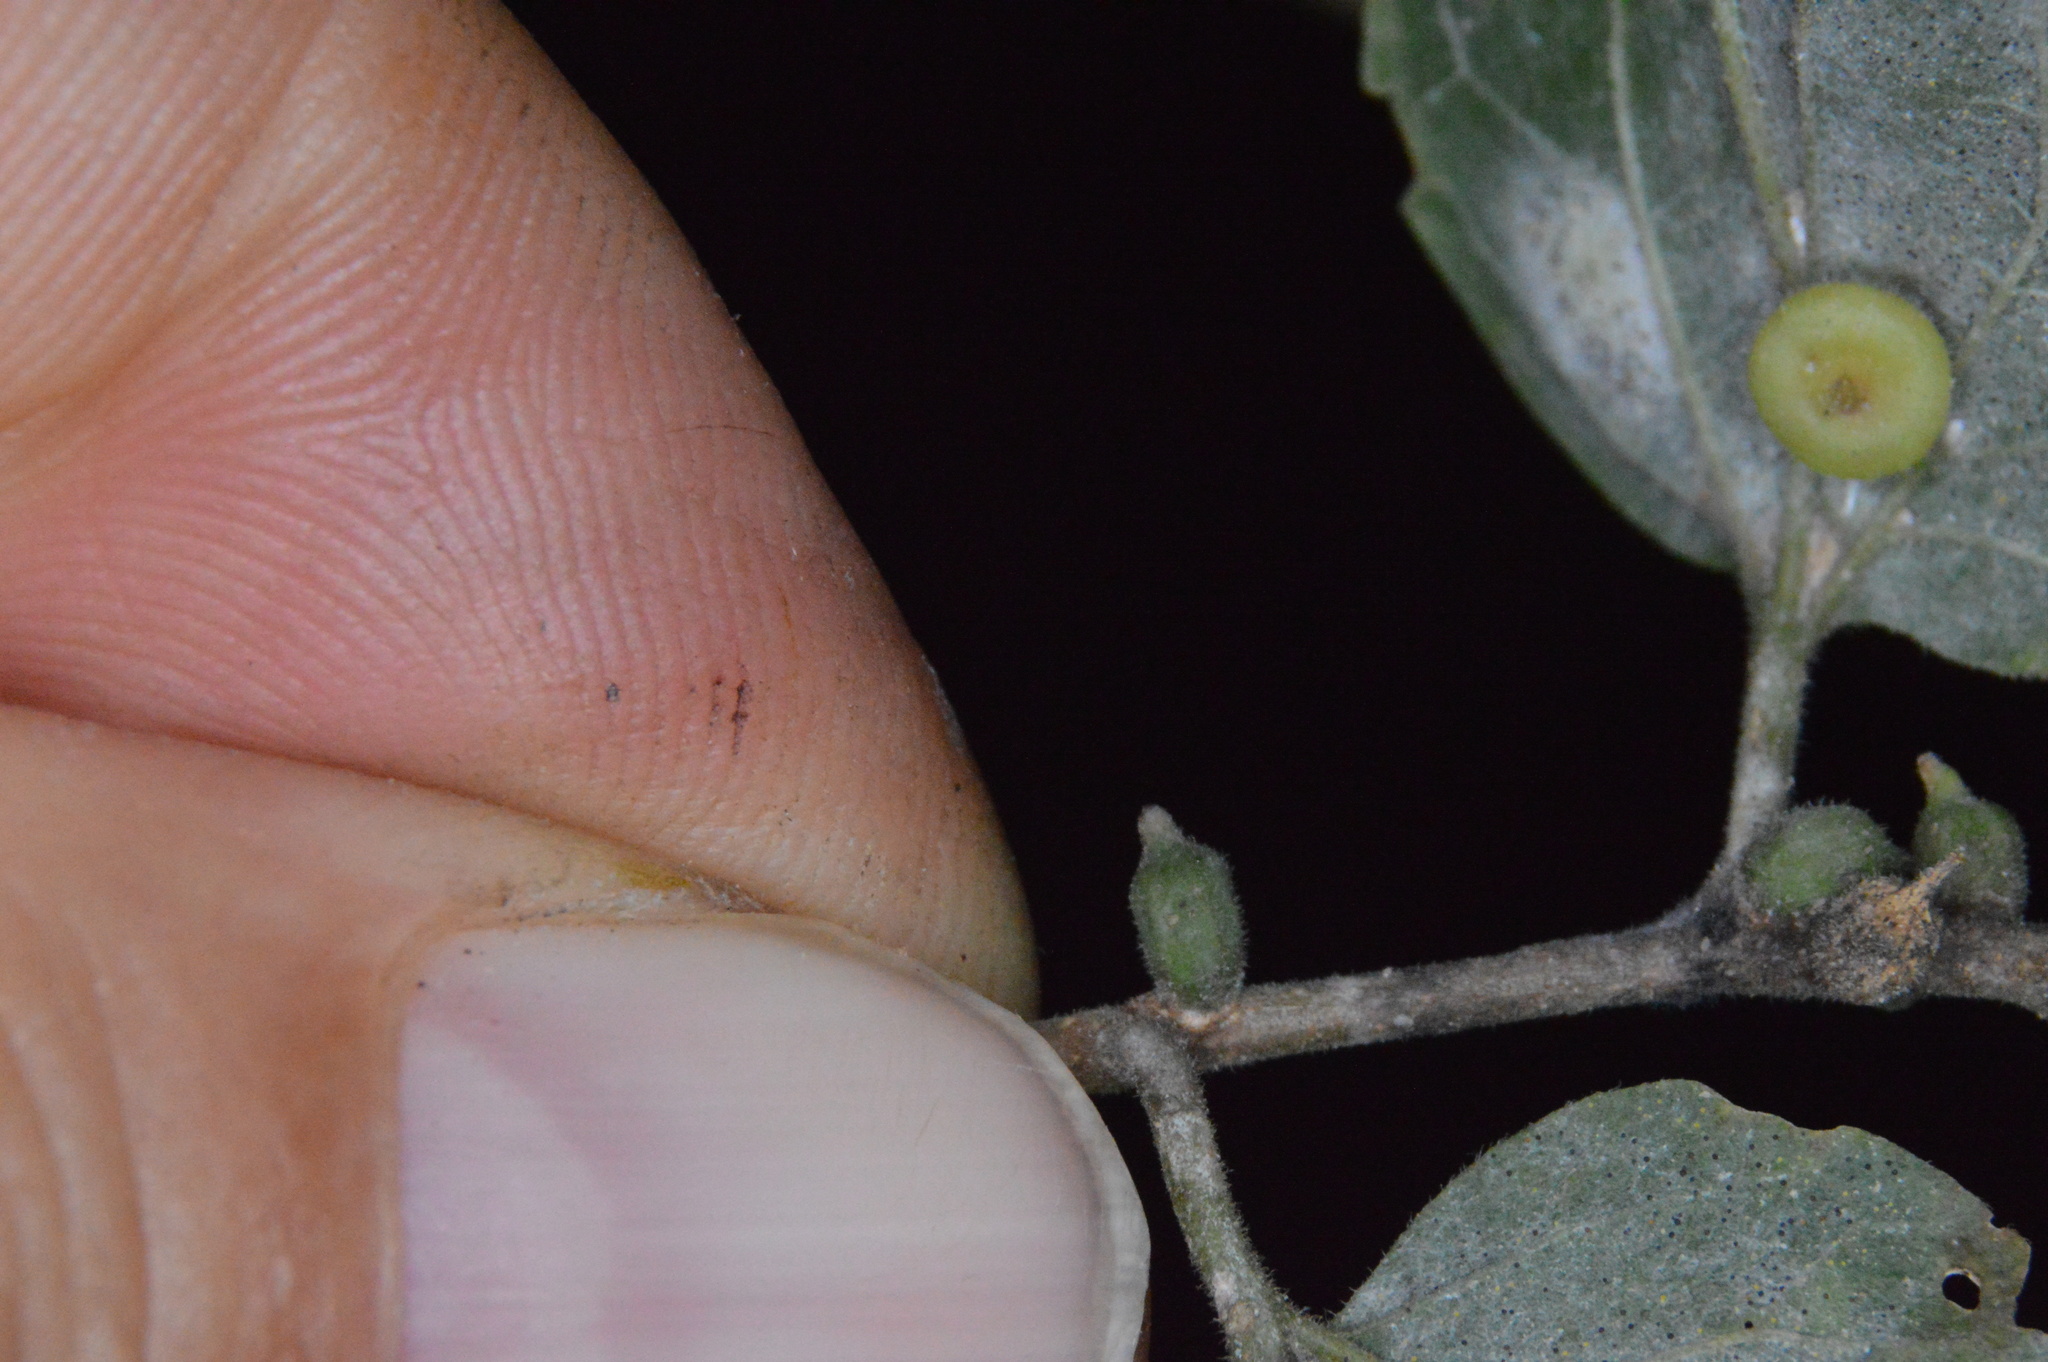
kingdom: Animalia
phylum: Arthropoda
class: Insecta
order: Diptera
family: Cecidomyiidae
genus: Celticecis
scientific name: Celticecis ramicola
